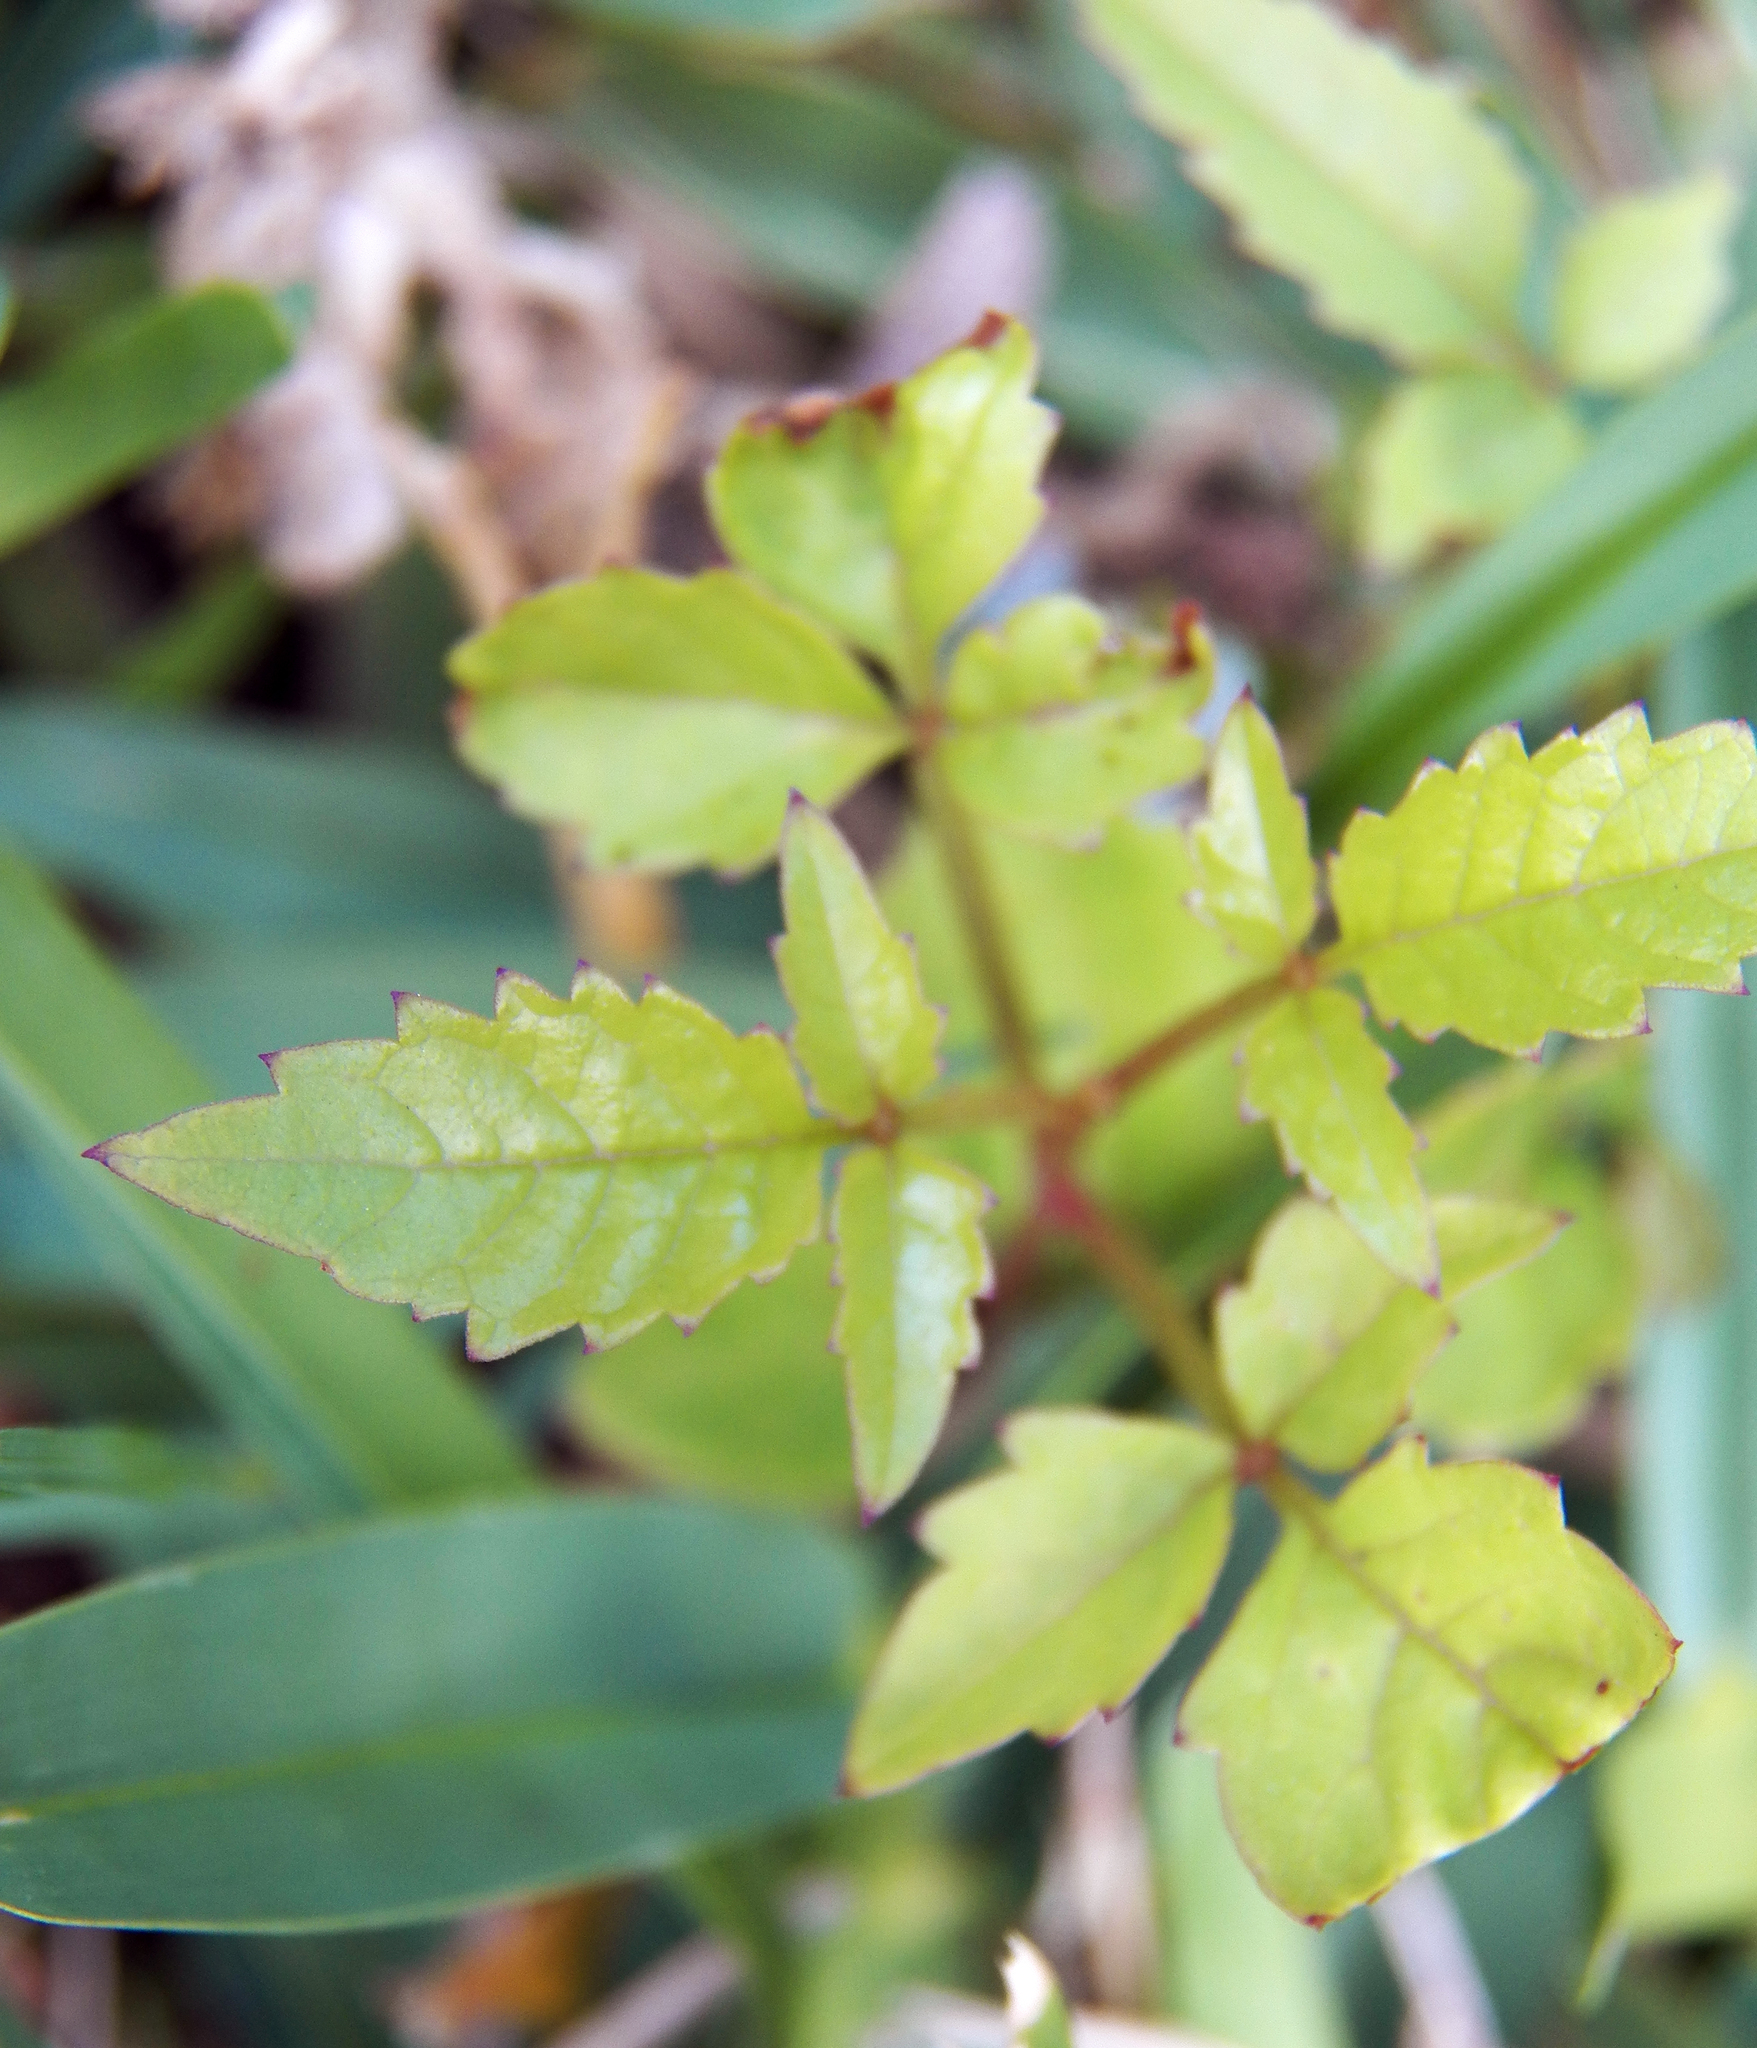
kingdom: Plantae
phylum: Tracheophyta
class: Magnoliopsida
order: Lamiales
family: Bignoniaceae
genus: Campsis
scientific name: Campsis radicans
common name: Trumpet-creeper
